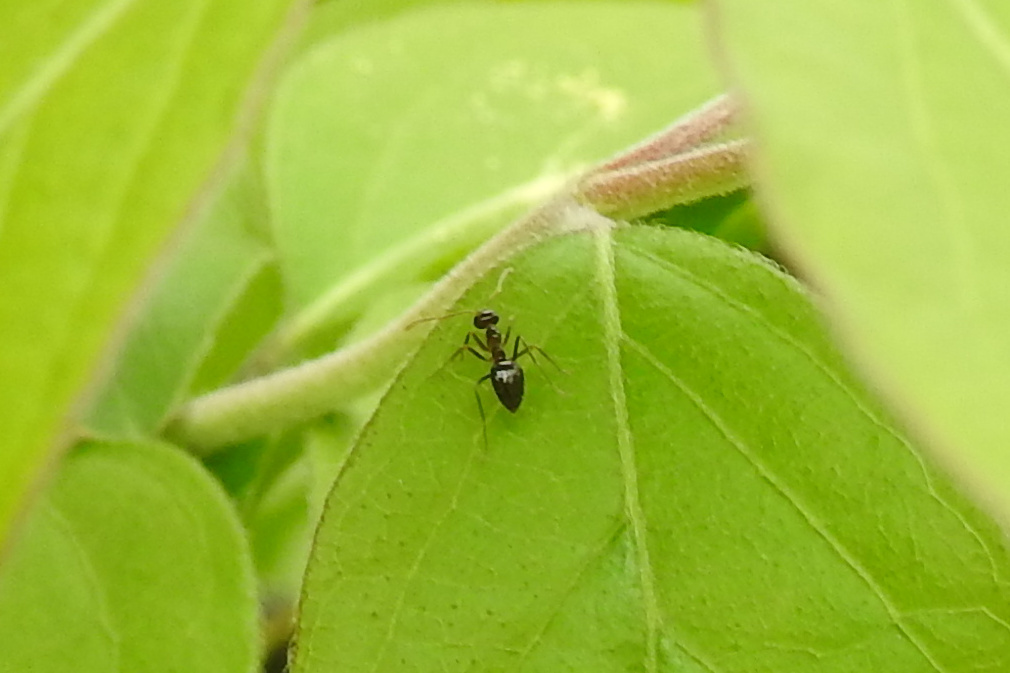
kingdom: Animalia
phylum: Arthropoda
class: Insecta
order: Hymenoptera
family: Formicidae
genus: Prenolepis
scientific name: Prenolepis imparis
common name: Small honey ant
